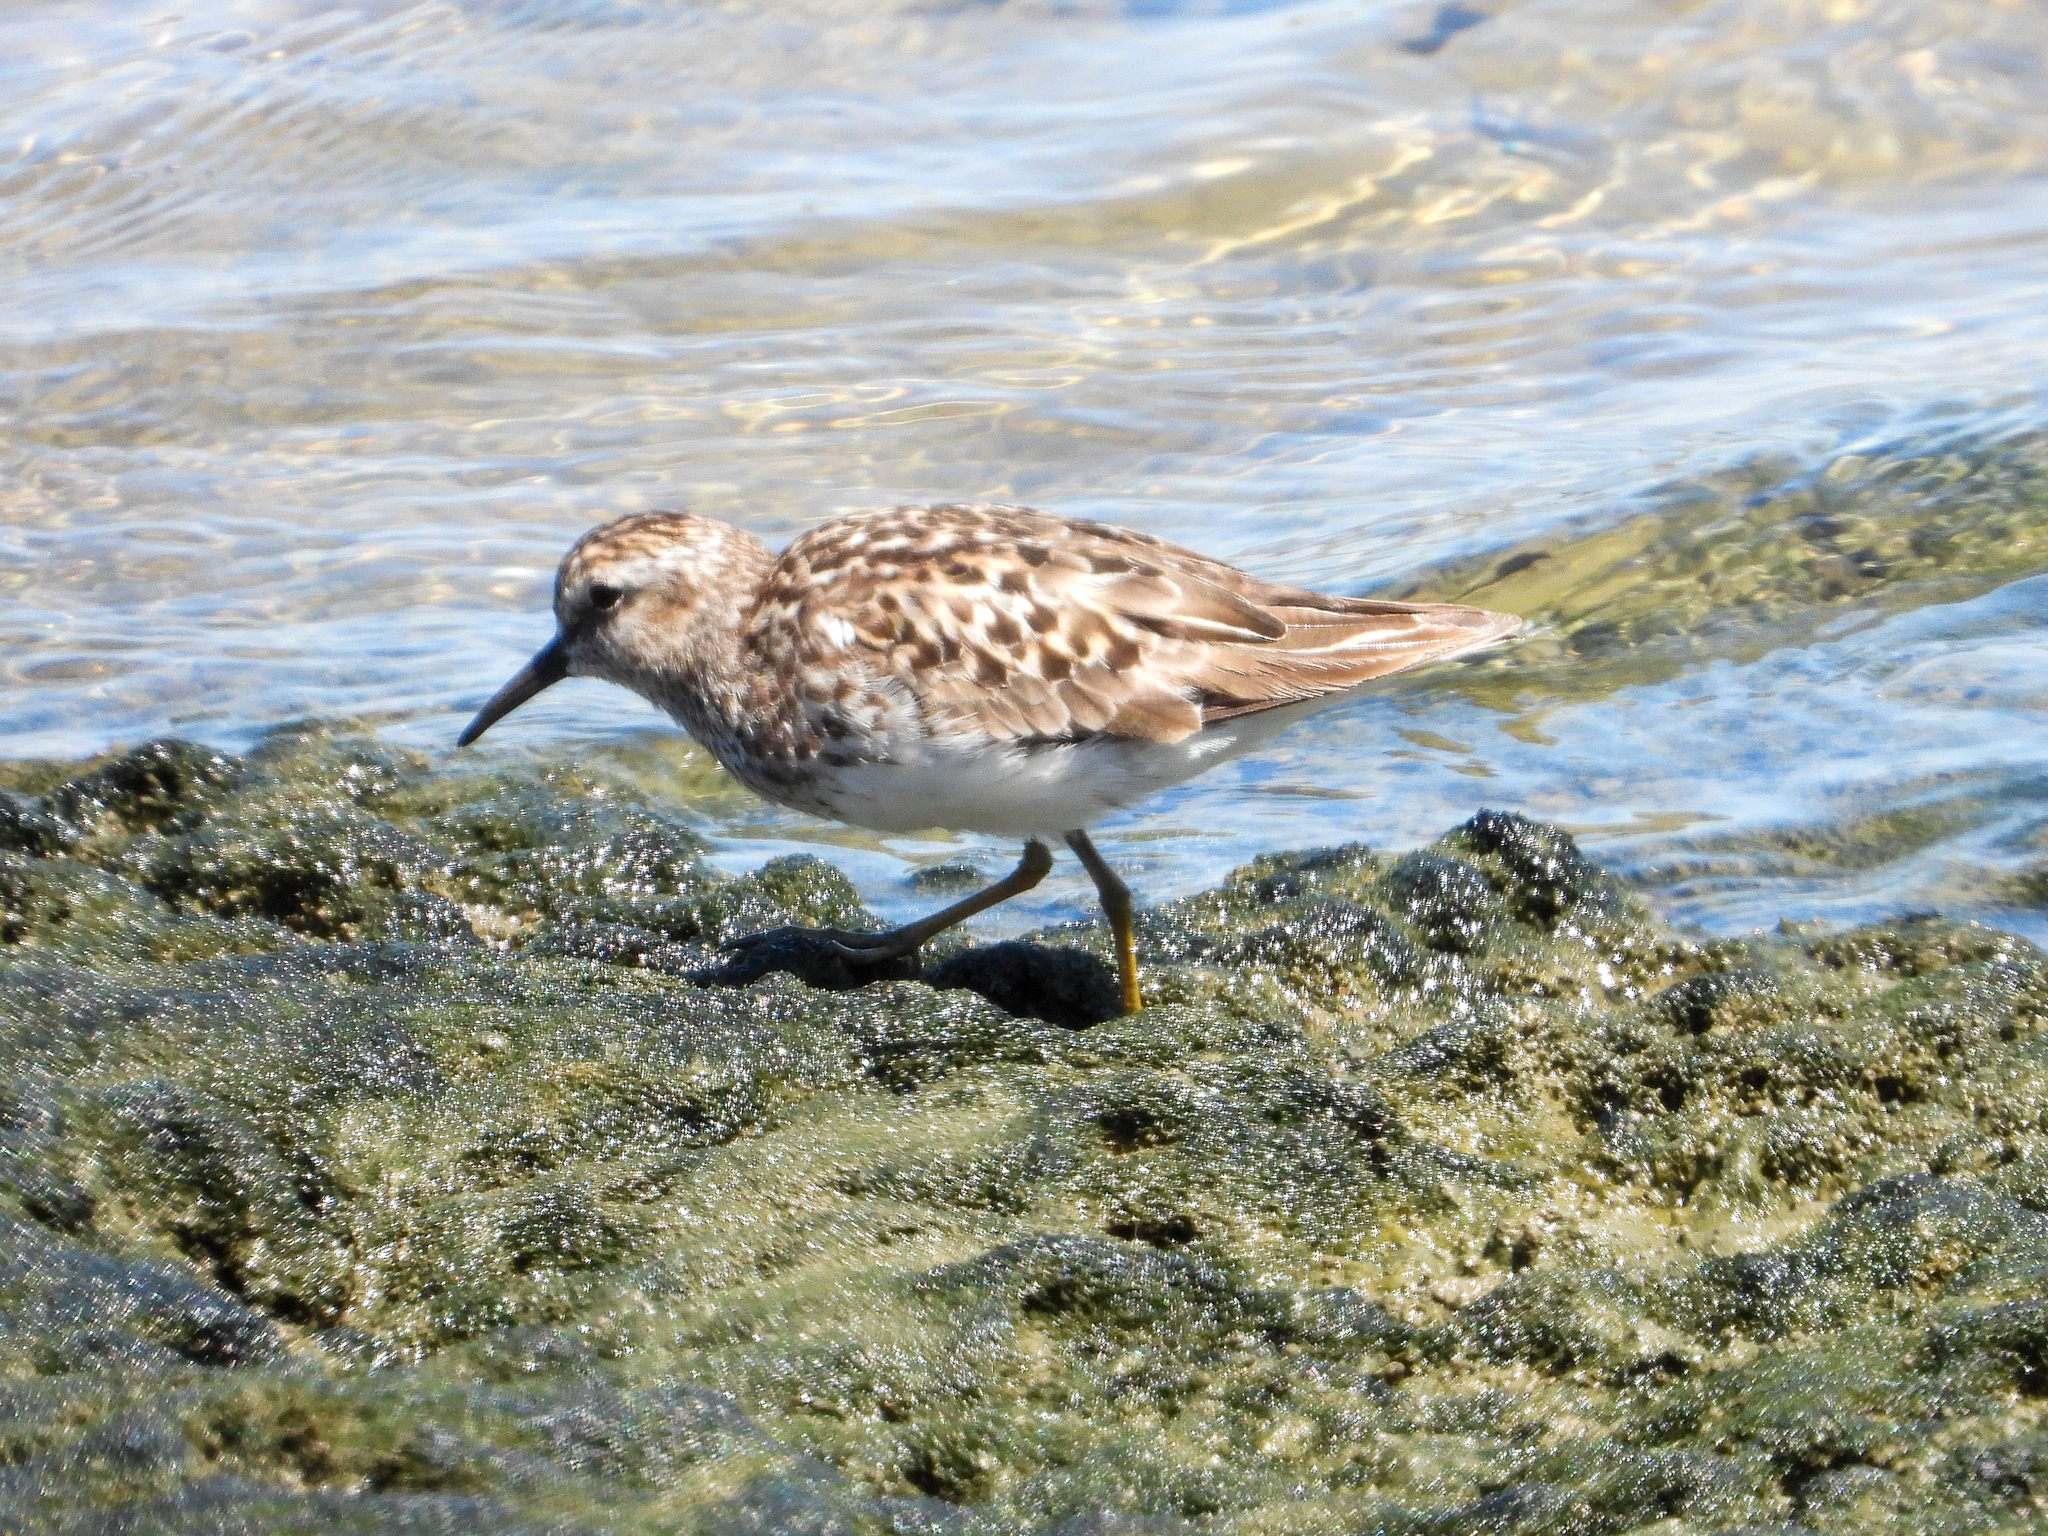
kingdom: Animalia
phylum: Chordata
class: Aves
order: Charadriiformes
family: Scolopacidae
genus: Calidris
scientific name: Calidris minutilla
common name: Least sandpiper
